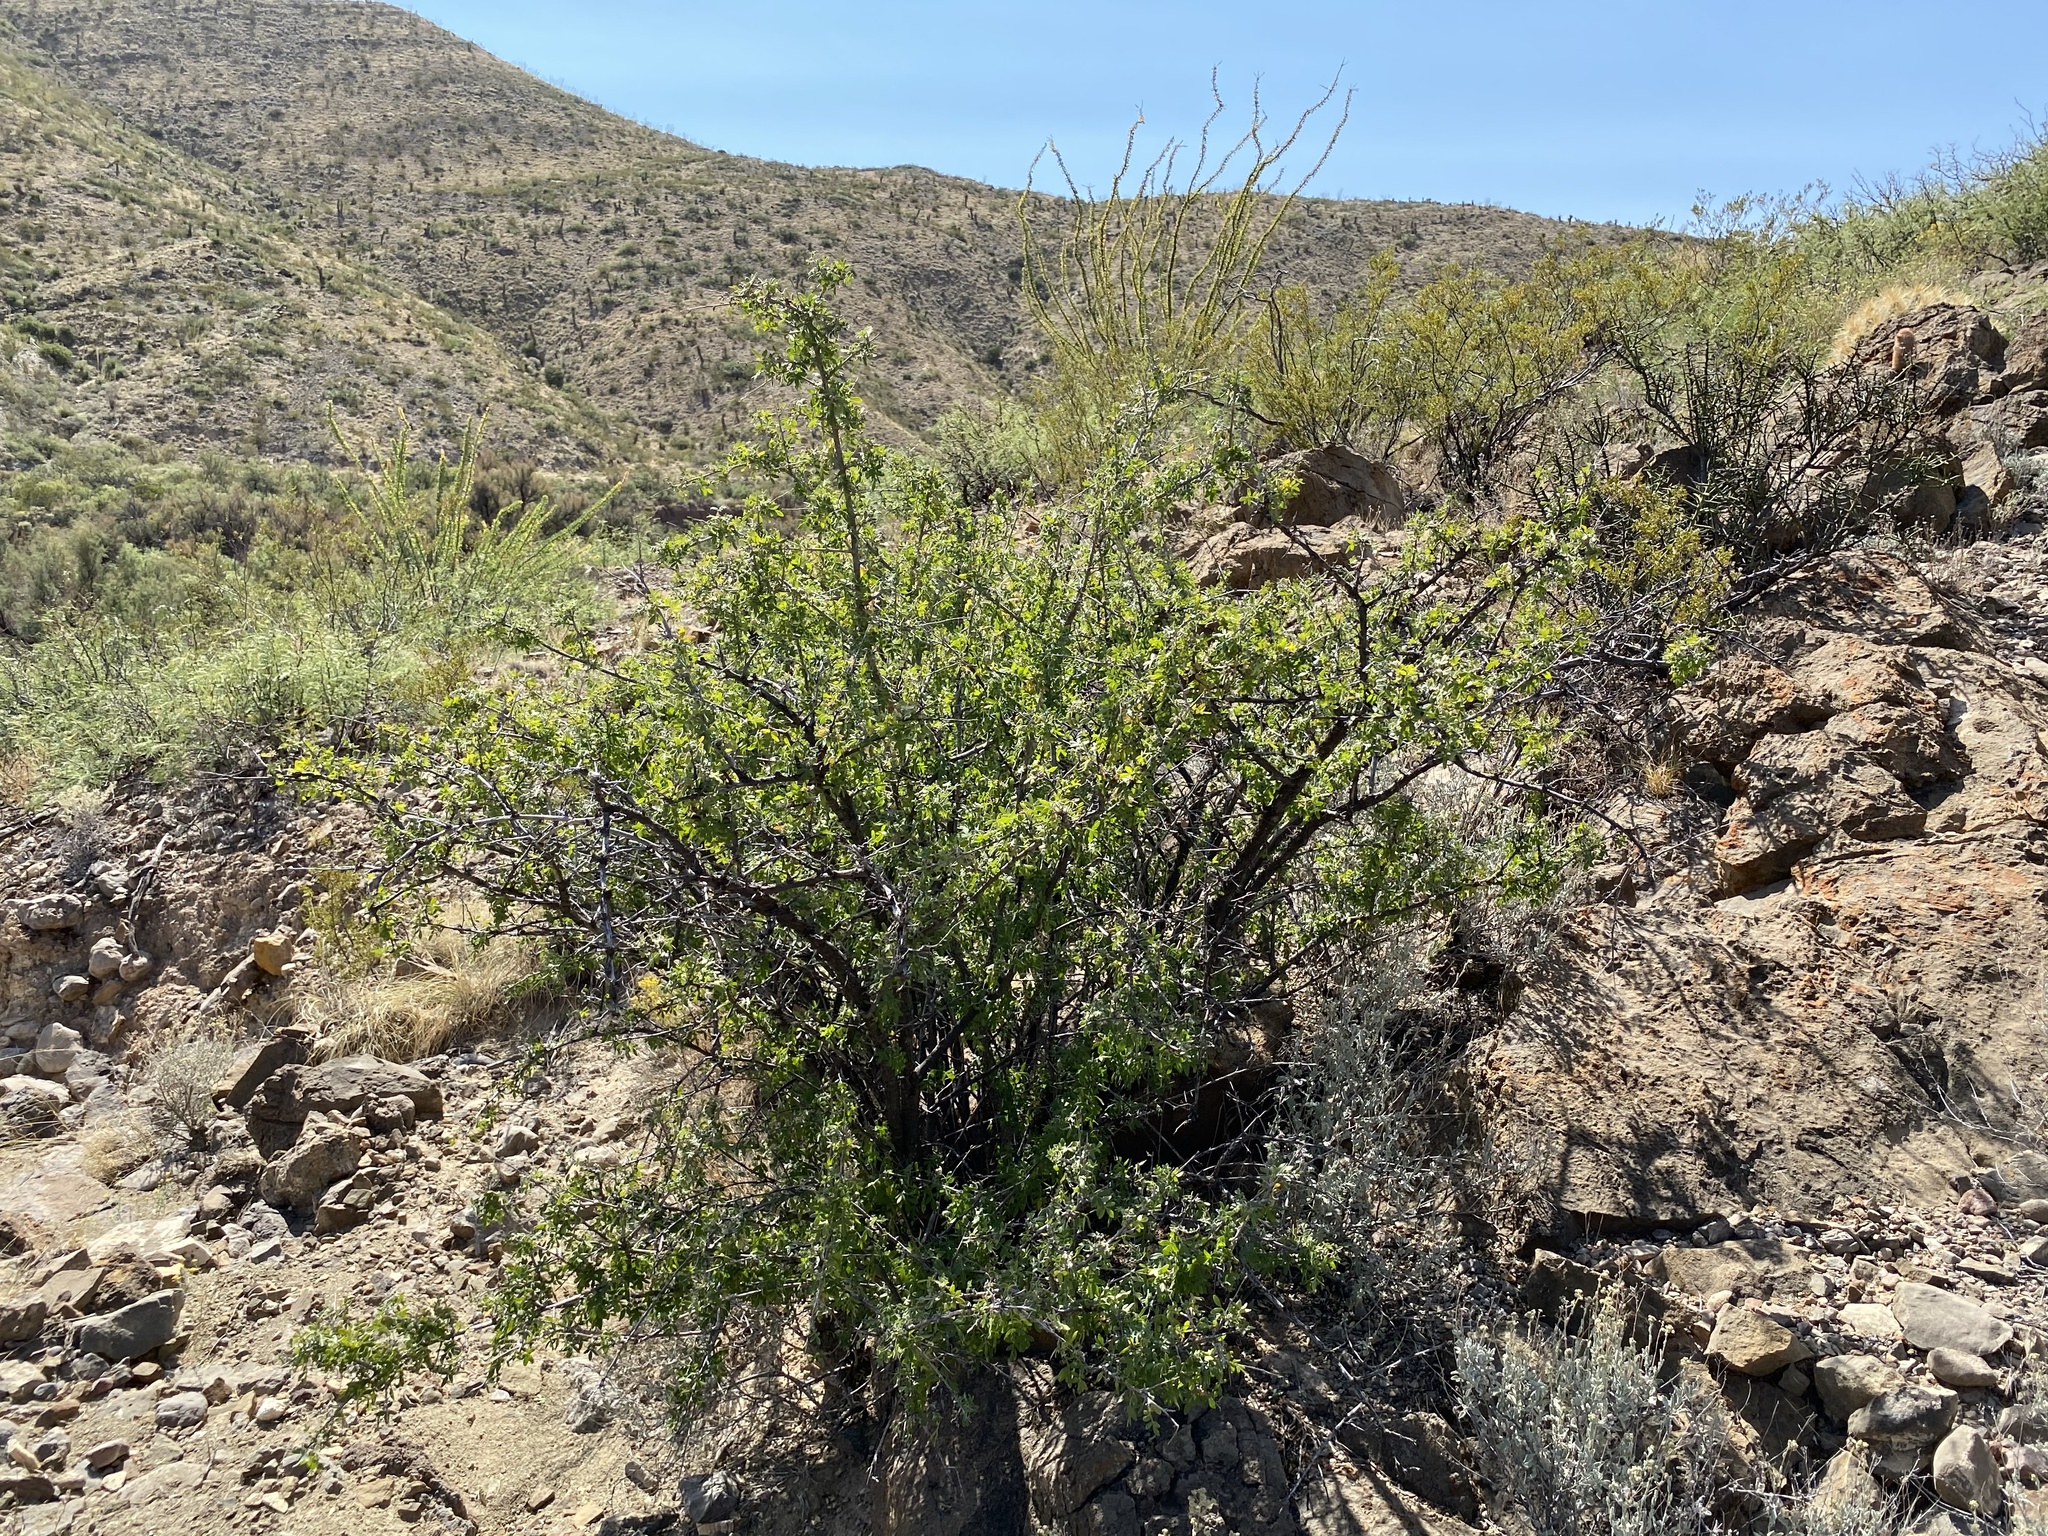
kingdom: Plantae
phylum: Tracheophyta
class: Magnoliopsida
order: Sapindales
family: Anacardiaceae
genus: Rhus
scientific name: Rhus microphylla
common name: Desert sumac
